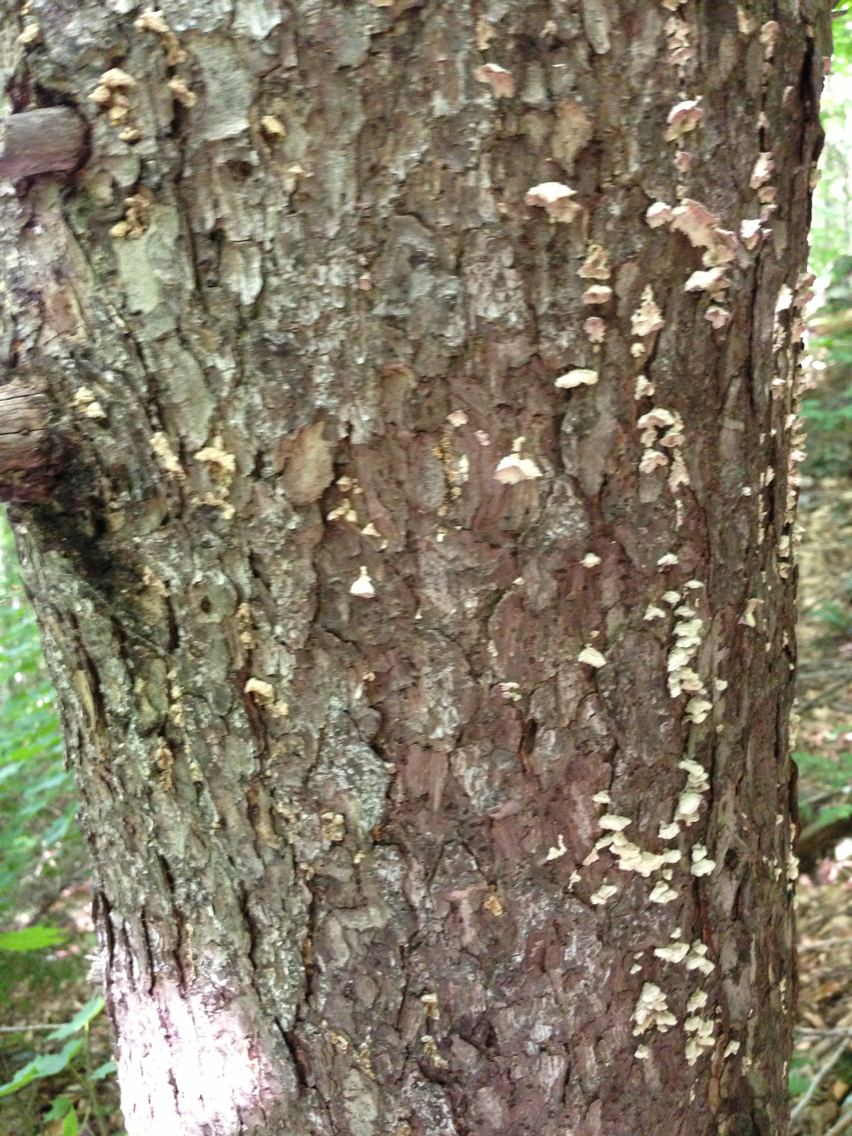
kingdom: Plantae
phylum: Tracheophyta
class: Pinopsida
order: Pinales
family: Pinaceae
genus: Picea
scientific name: Picea rubens
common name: Red spruce
